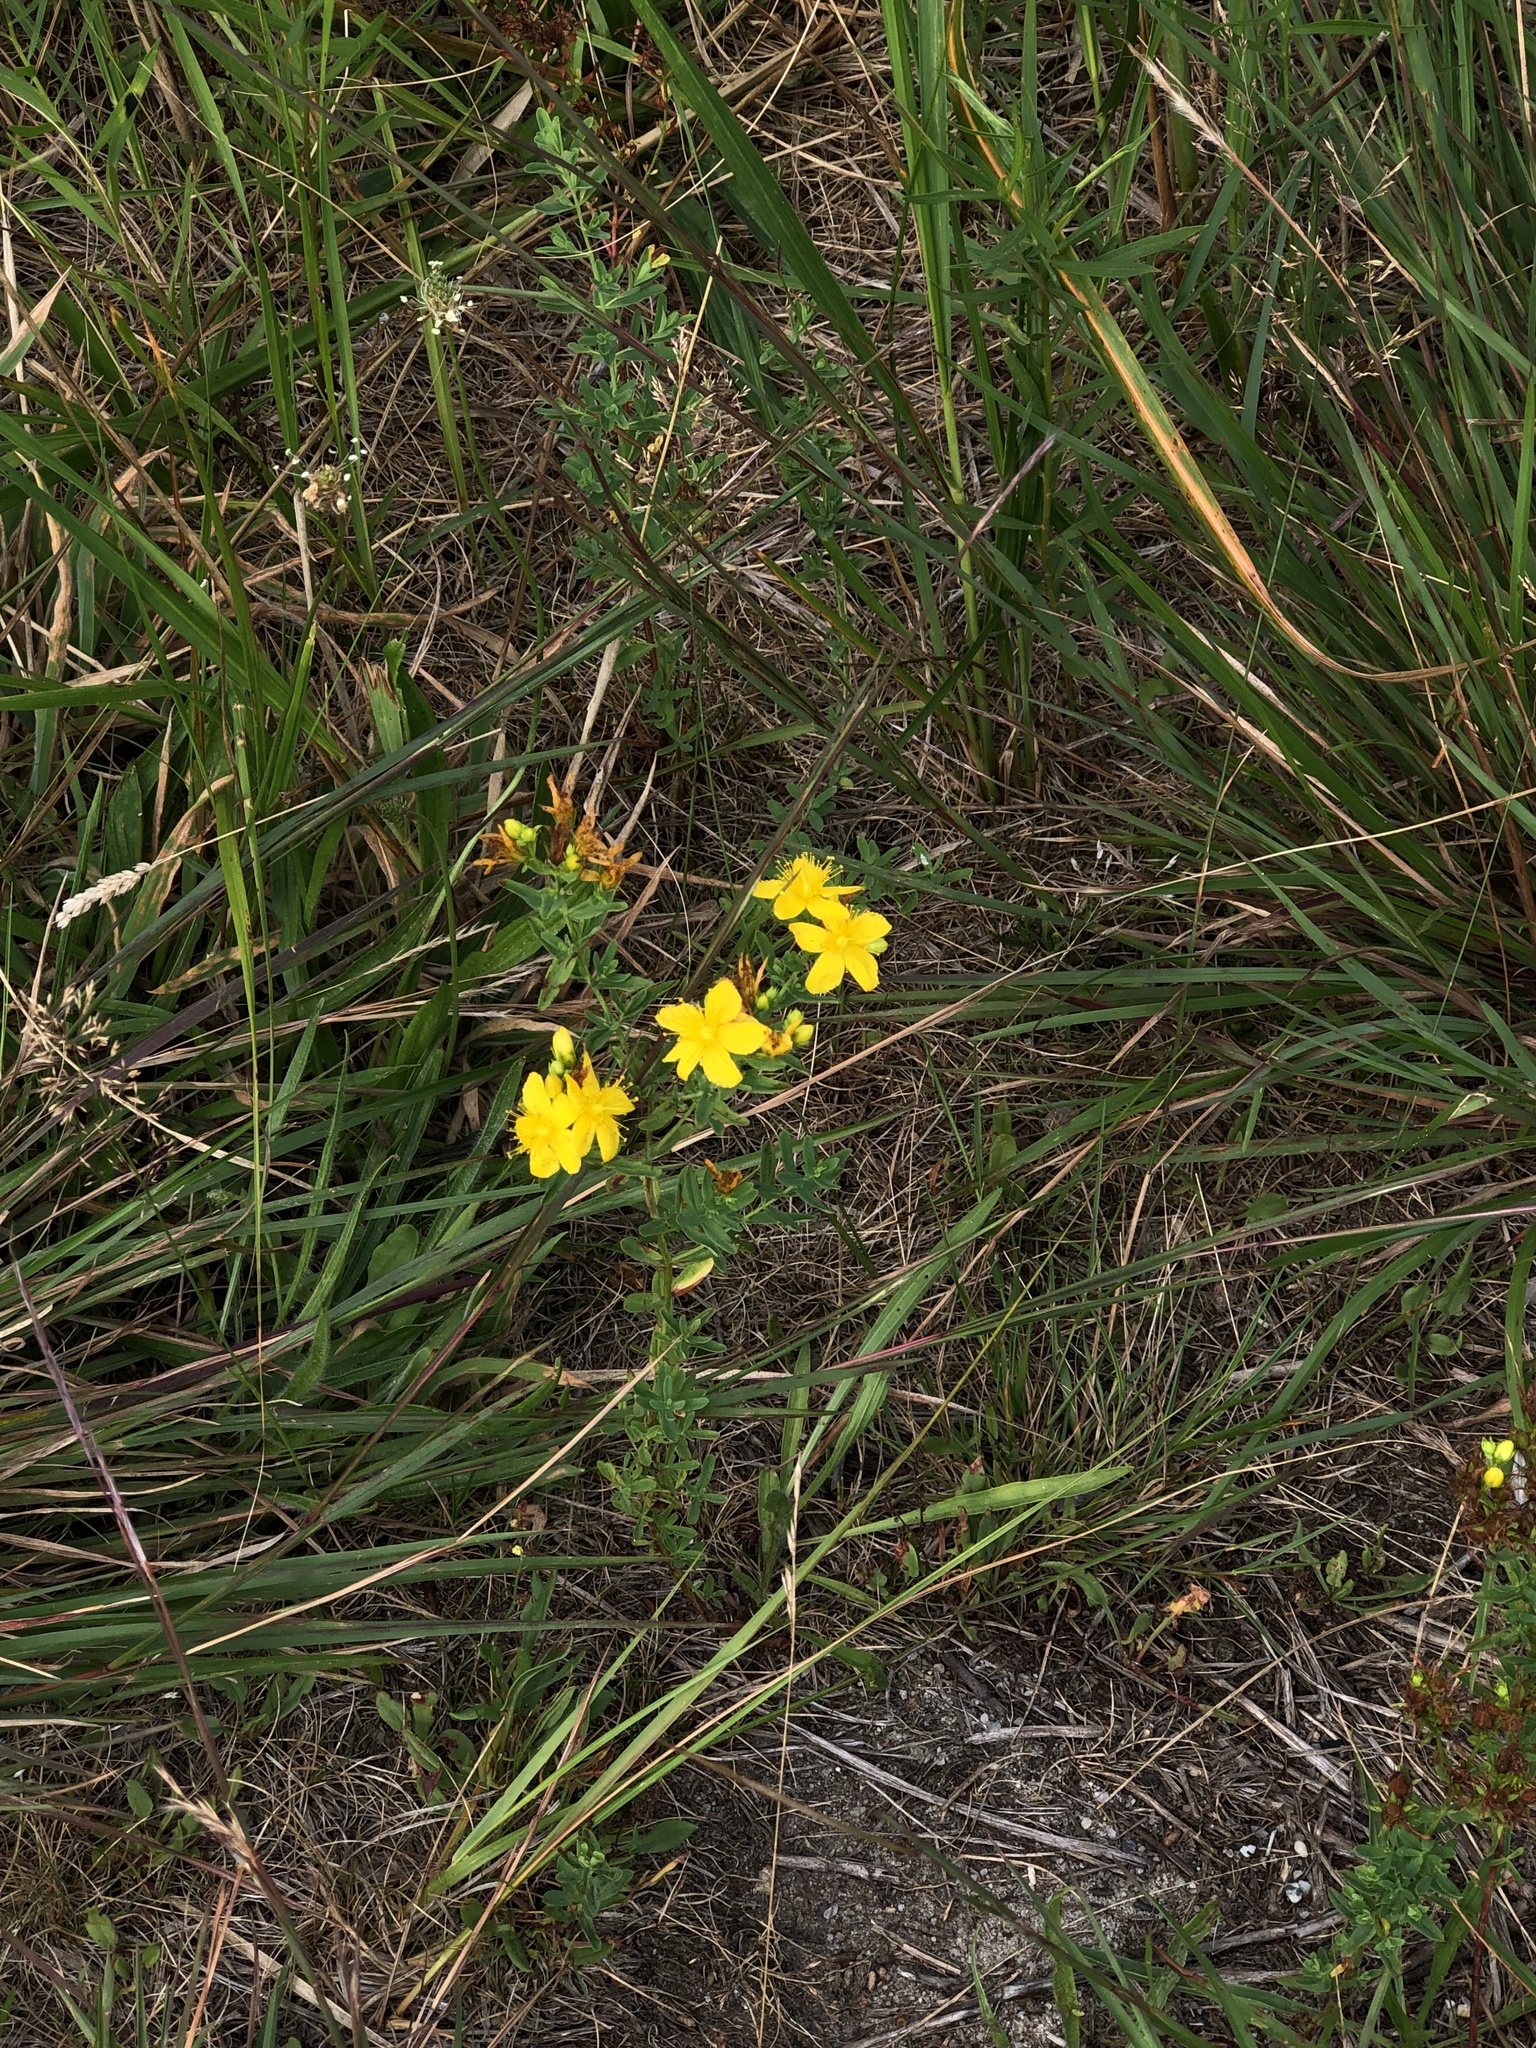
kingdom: Plantae
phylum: Tracheophyta
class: Magnoliopsida
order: Malpighiales
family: Hypericaceae
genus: Hypericum
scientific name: Hypericum perforatum
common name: Common st. johnswort
